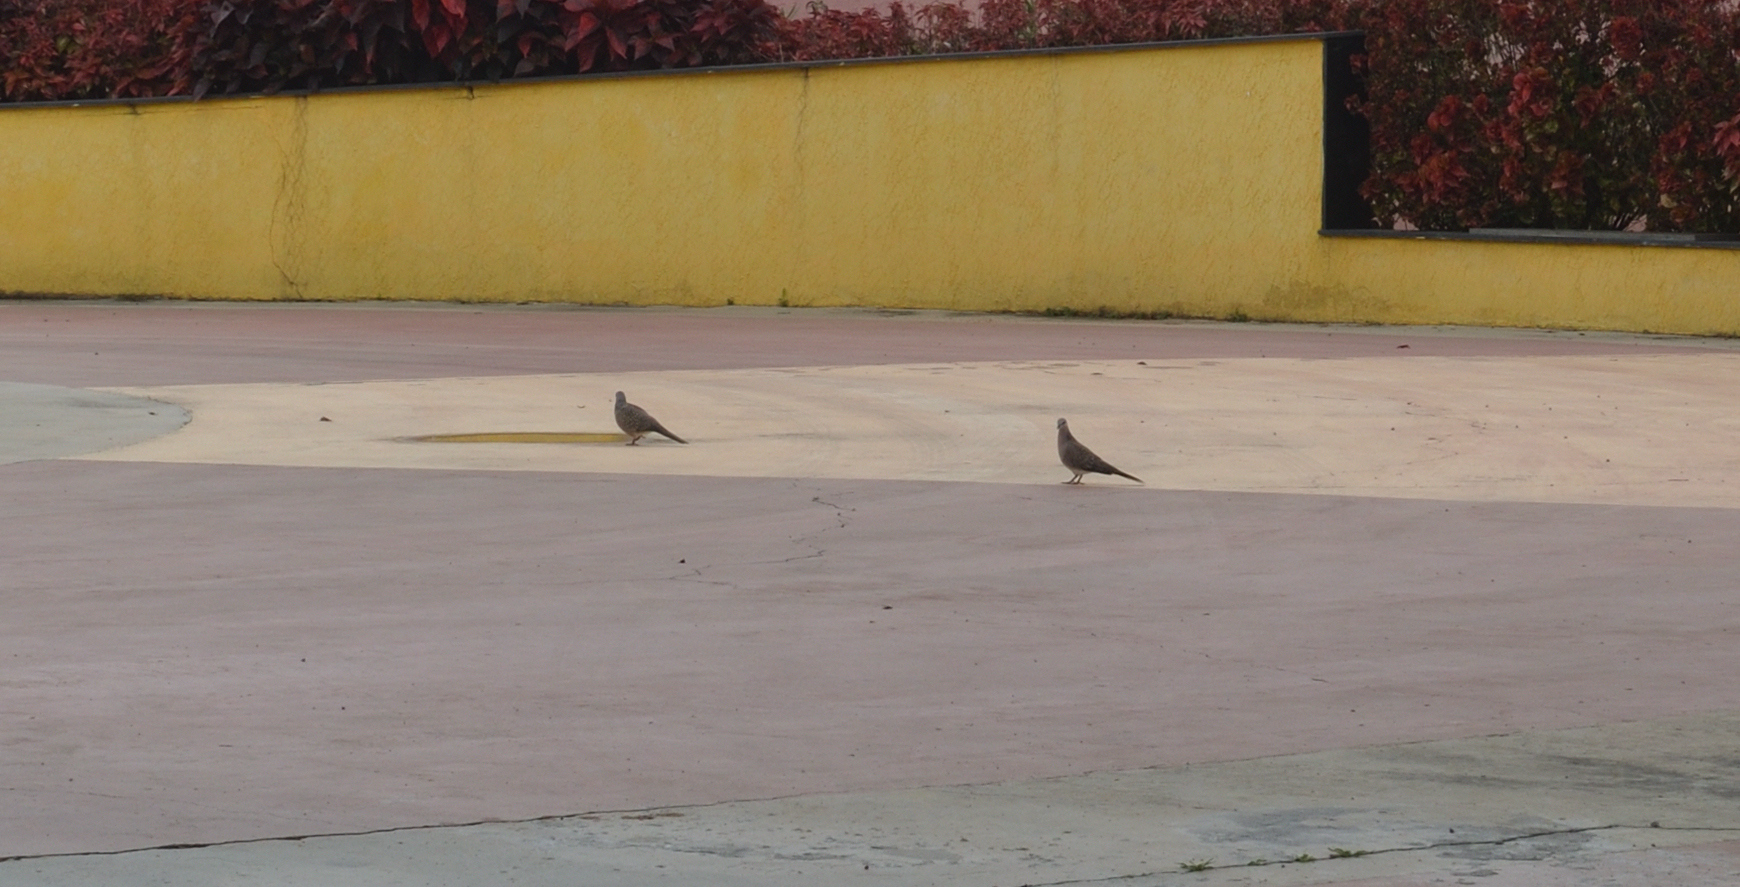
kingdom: Animalia
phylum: Chordata
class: Aves
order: Columbiformes
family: Columbidae
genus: Spilopelia
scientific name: Spilopelia chinensis
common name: Spotted dove
